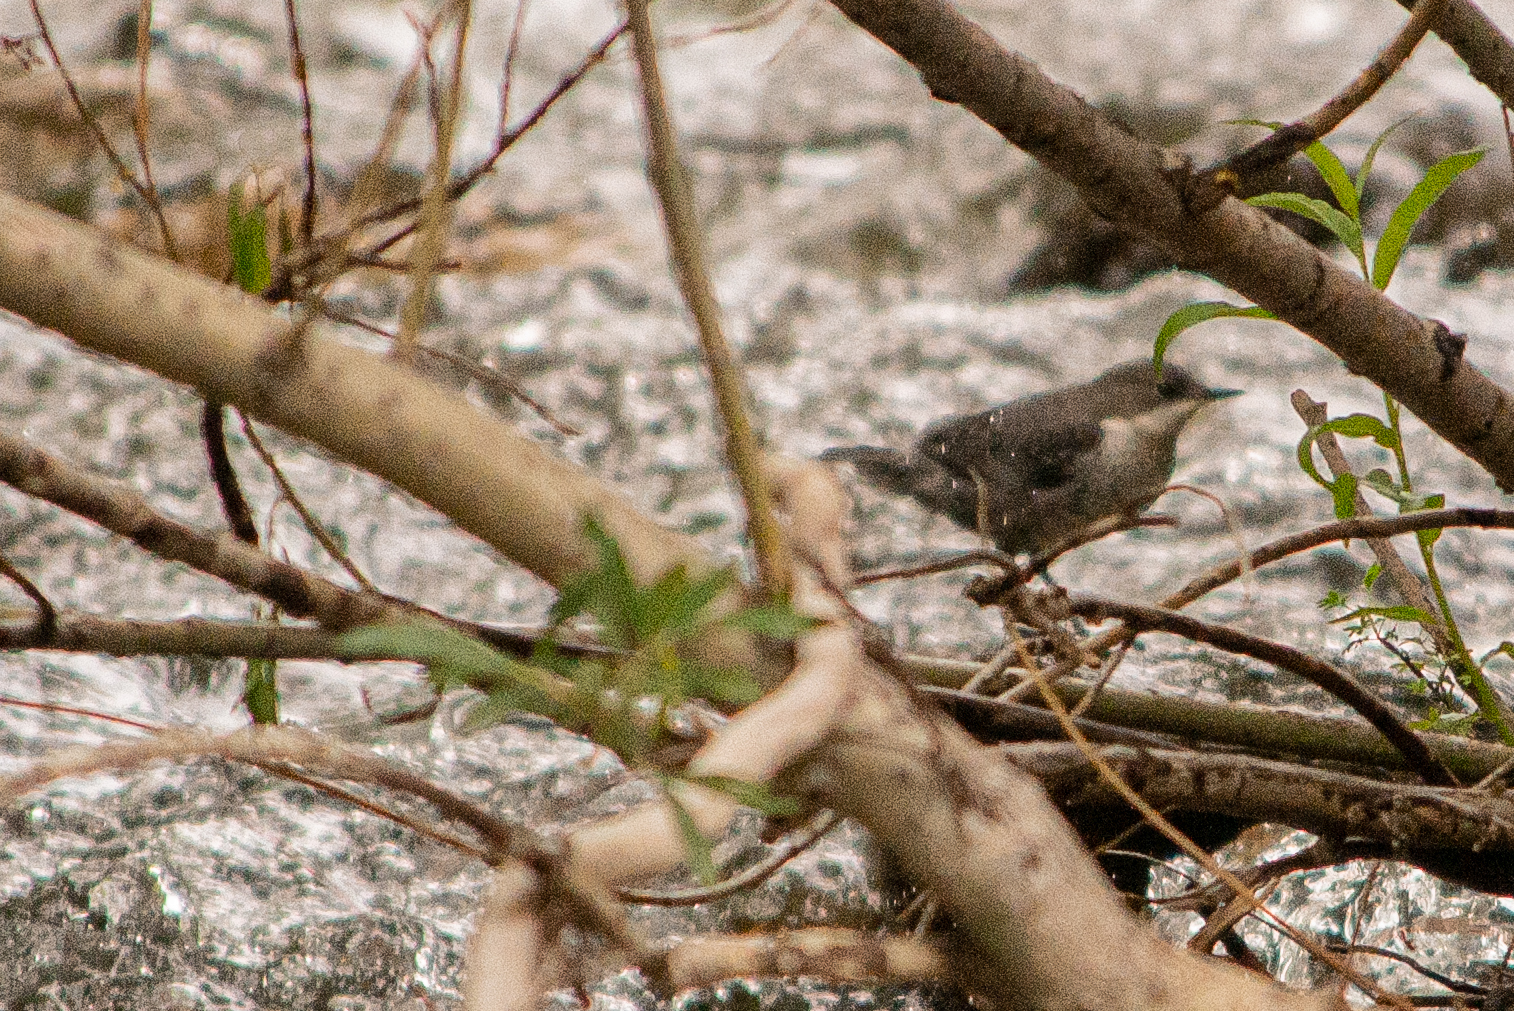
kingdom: Animalia
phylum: Chordata
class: Aves
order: Passeriformes
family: Cinclidae
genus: Cinclus
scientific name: Cinclus cinclus
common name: White-throated dipper
